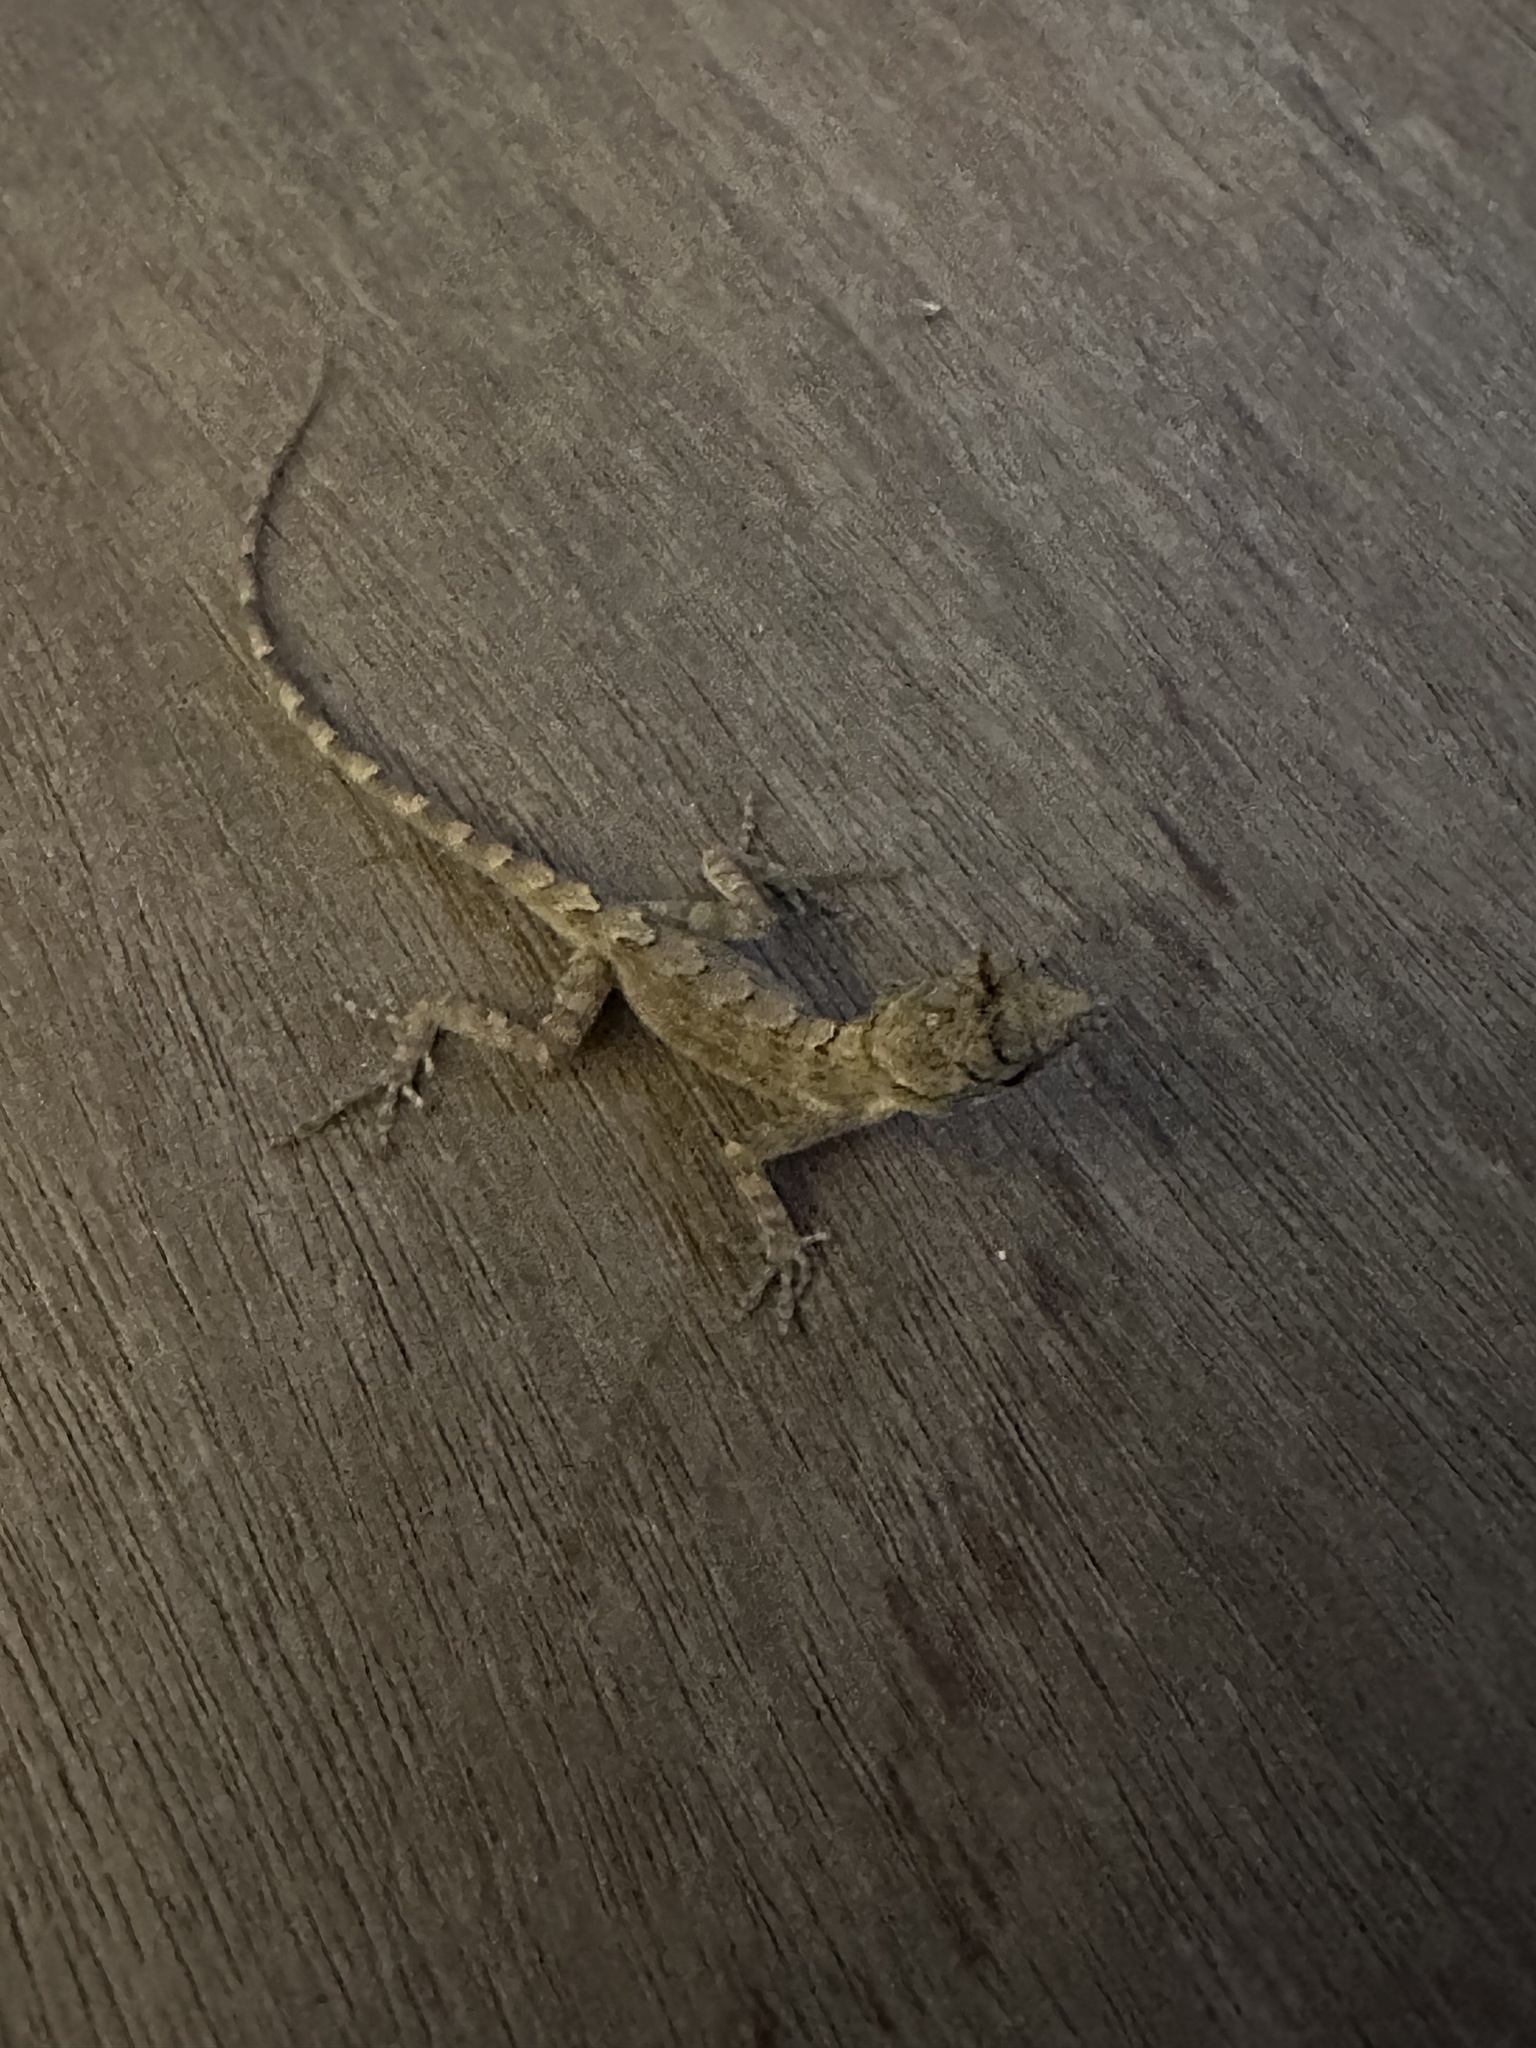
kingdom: Animalia
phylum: Chordata
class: Squamata
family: Dactyloidae
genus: Anolis
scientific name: Anolis gingivinus
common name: Anguilla anole
